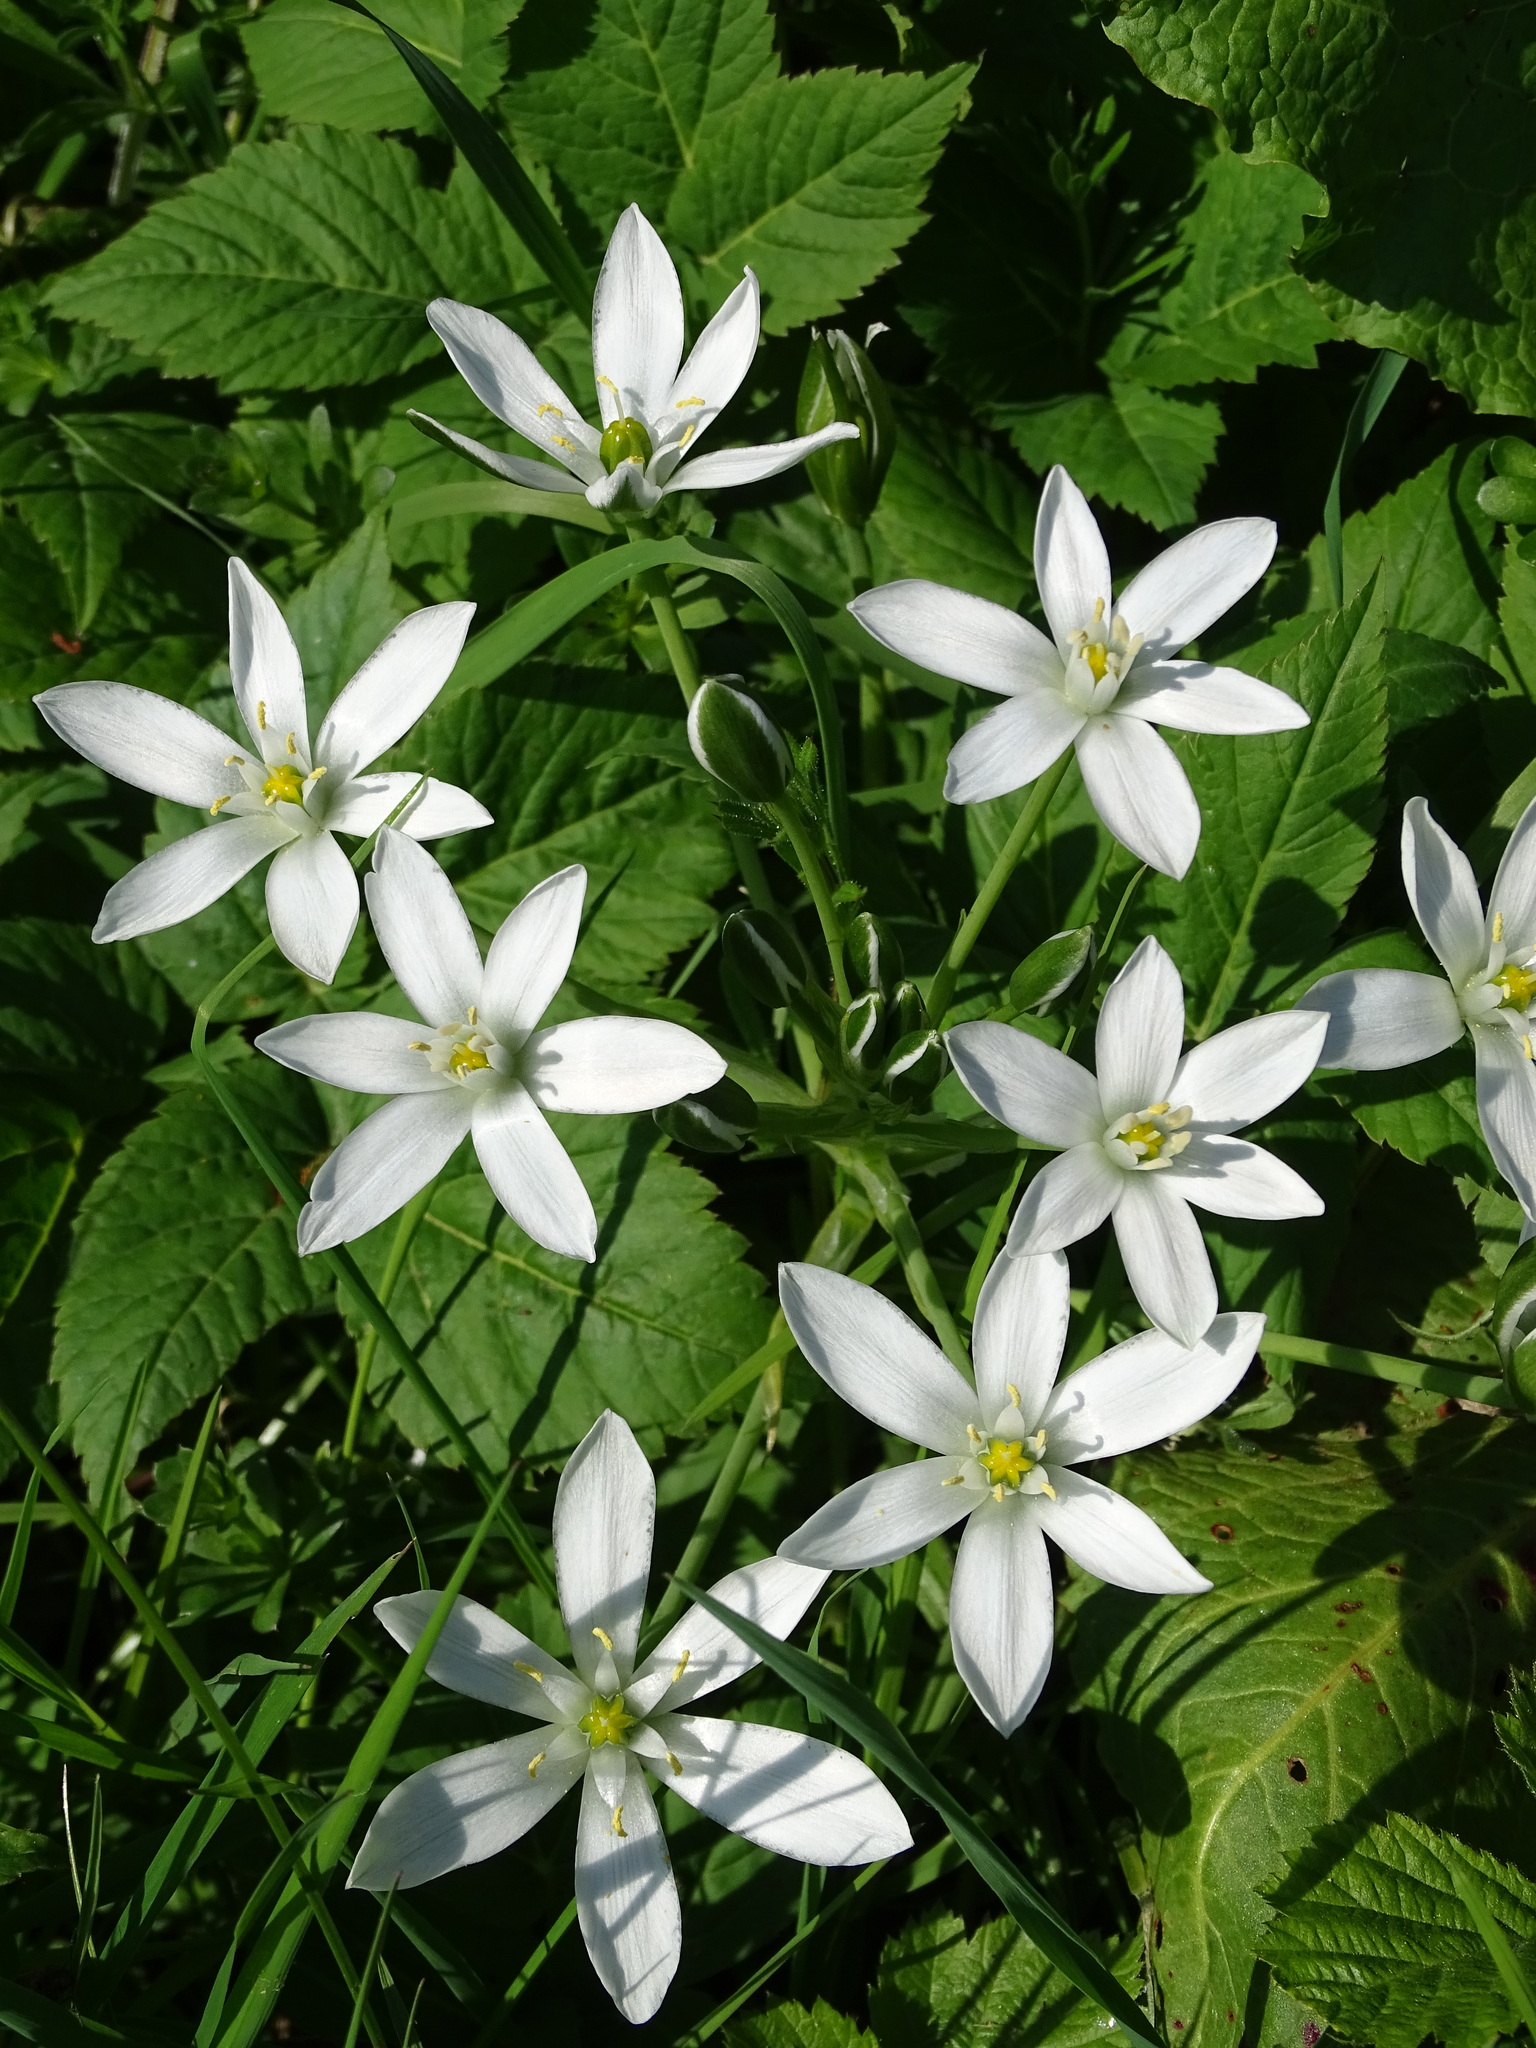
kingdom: Plantae
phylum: Tracheophyta
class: Liliopsida
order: Asparagales
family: Asparagaceae
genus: Ornithogalum
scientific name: Ornithogalum umbellatum
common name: Garden star-of-bethlehem
